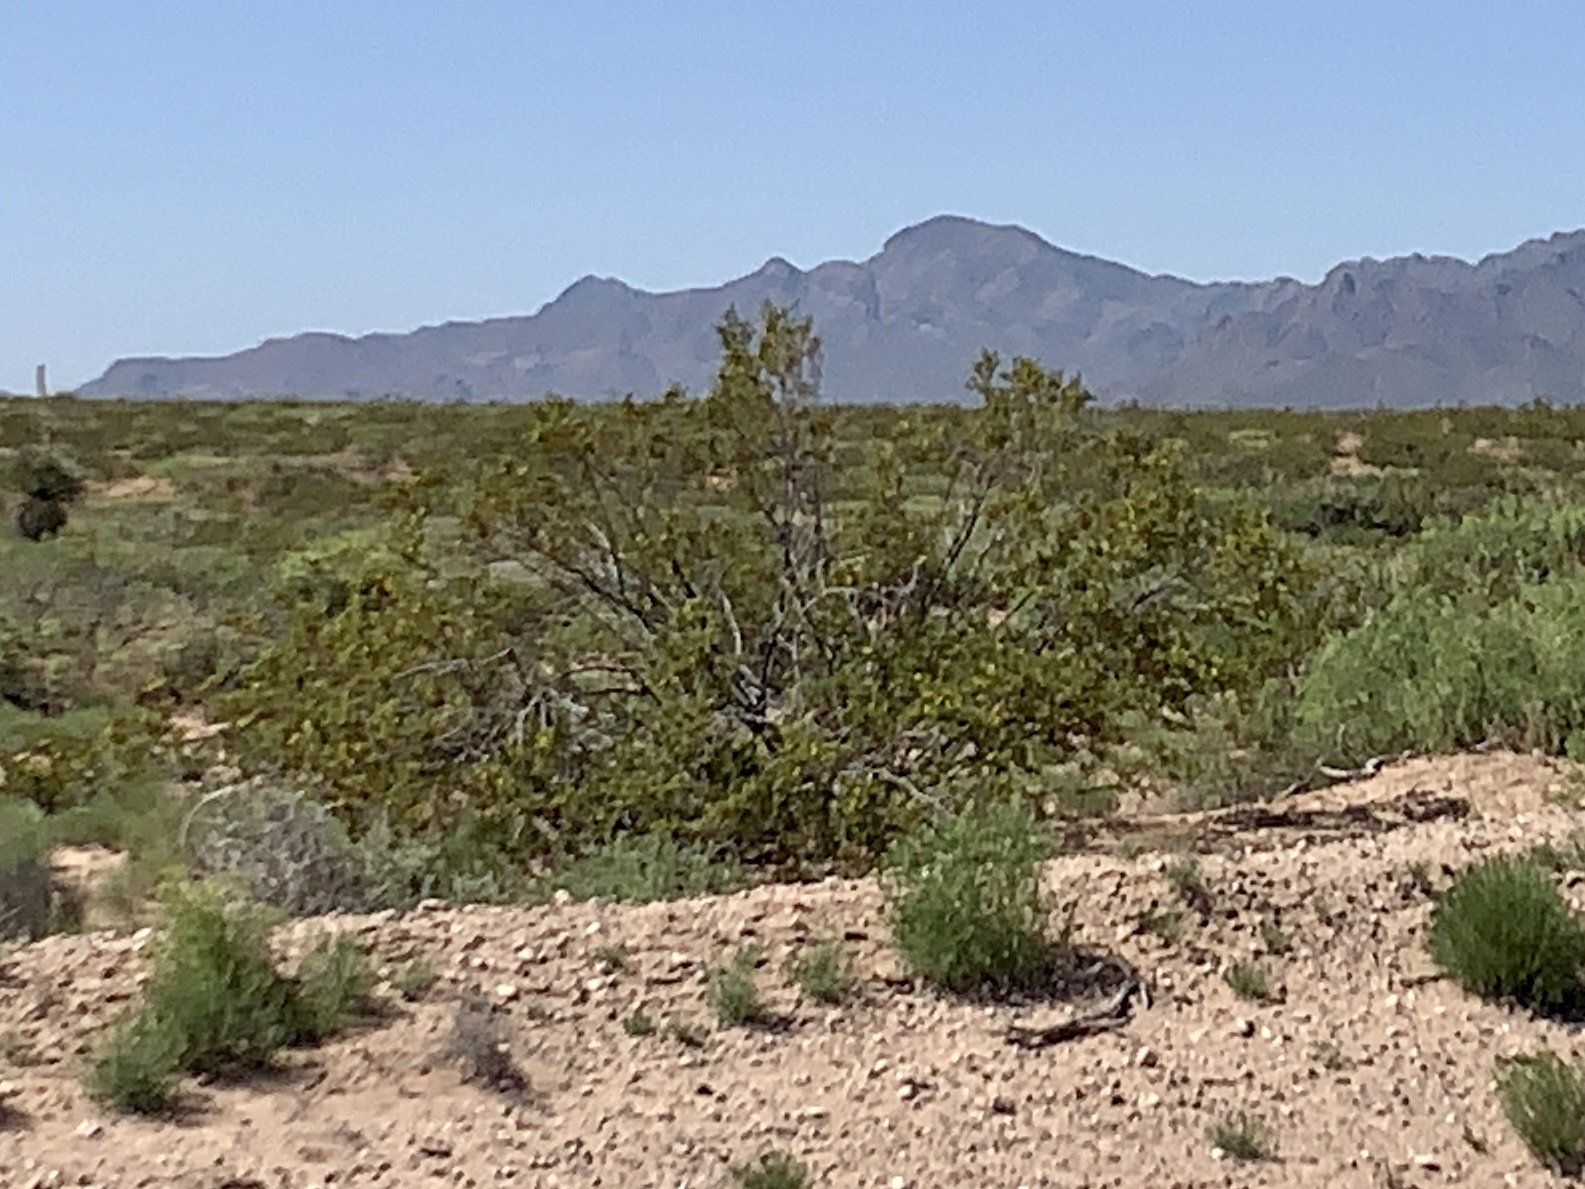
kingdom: Plantae
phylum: Tracheophyta
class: Magnoliopsida
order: Zygophyllales
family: Zygophyllaceae
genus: Larrea
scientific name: Larrea tridentata
